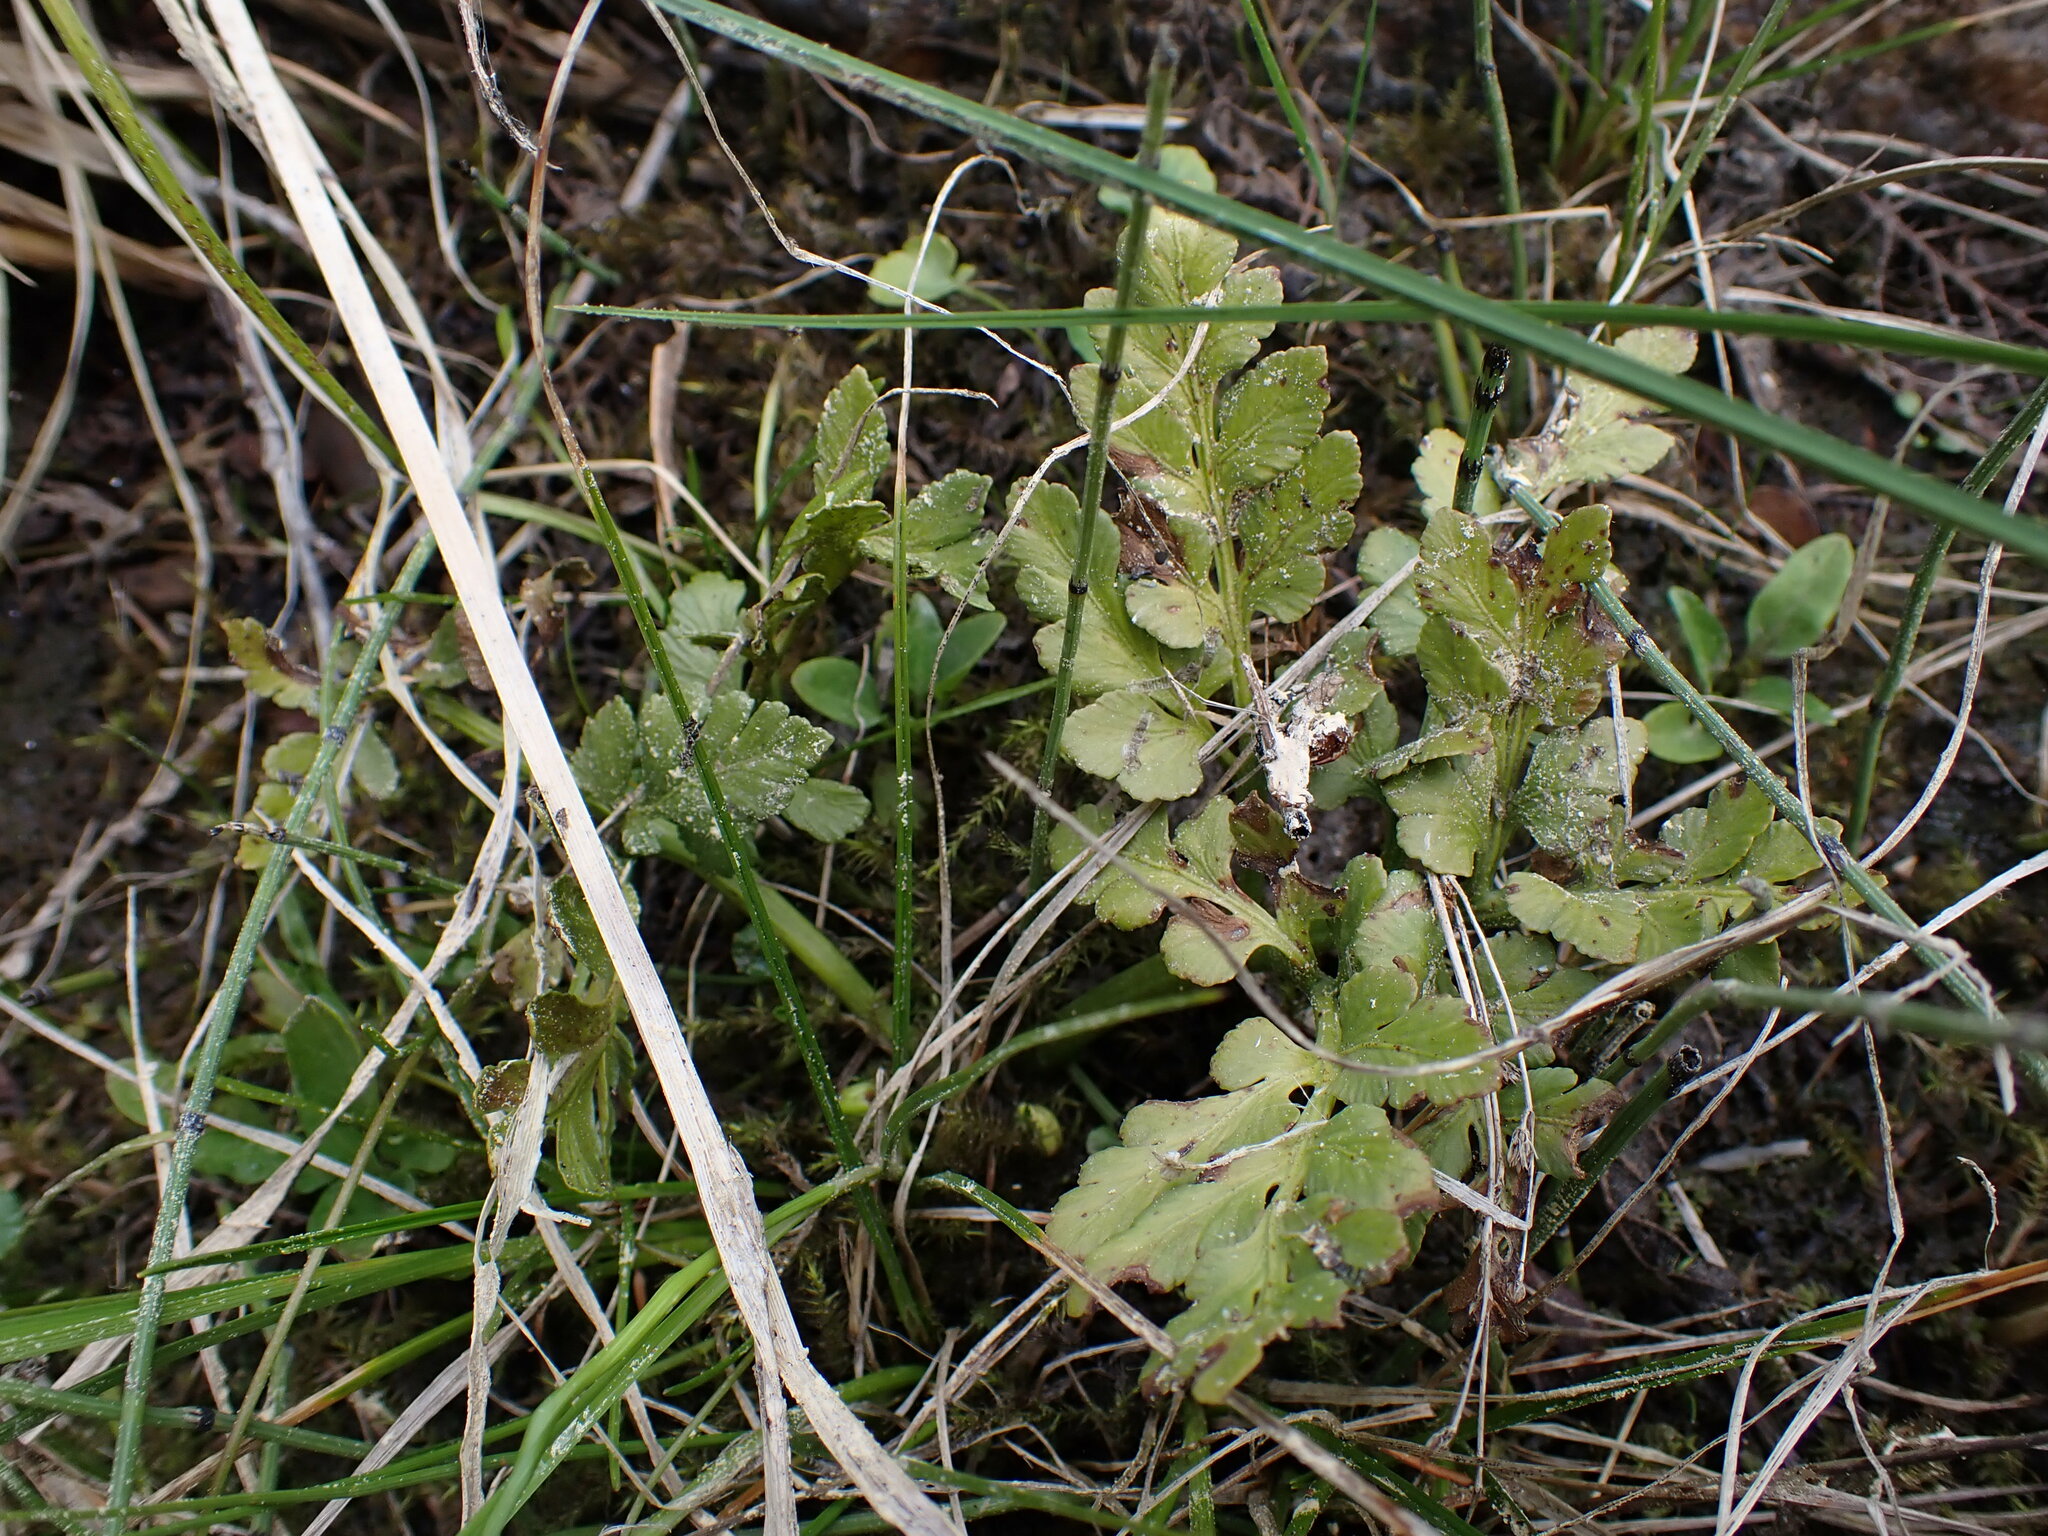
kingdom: Plantae
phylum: Tracheophyta
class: Polypodiopsida
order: Ophioglossales
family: Ophioglossaceae
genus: Sceptridium
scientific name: Sceptridium multifidum
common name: Leathery grape fern
